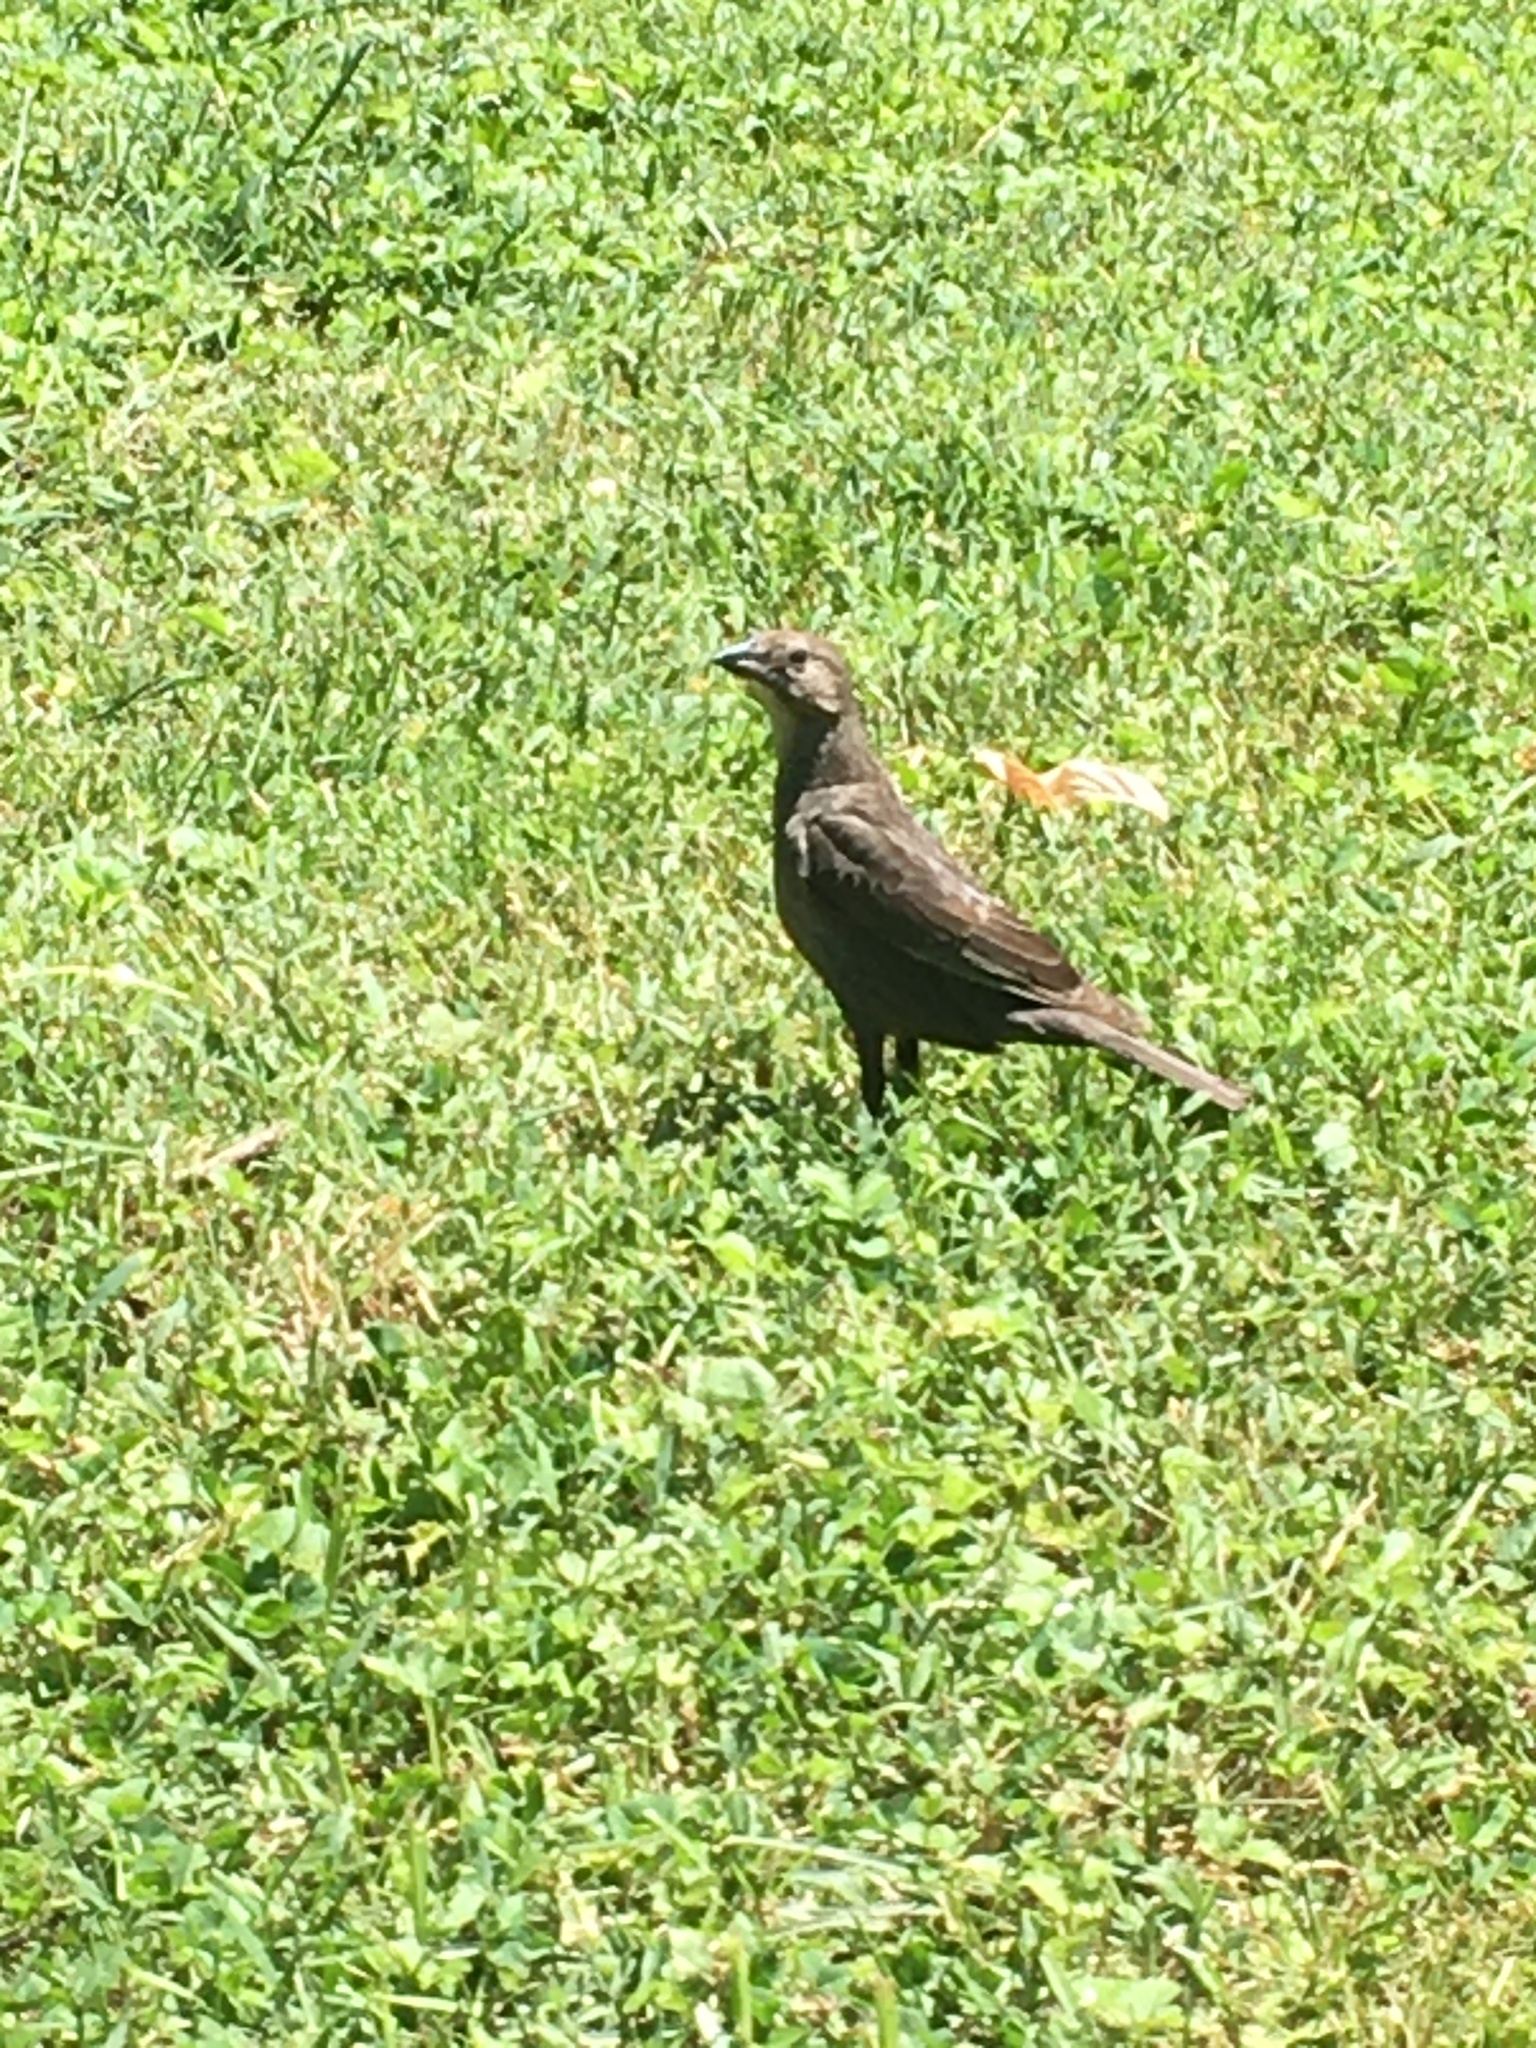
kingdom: Animalia
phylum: Chordata
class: Aves
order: Passeriformes
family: Icteridae
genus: Molothrus
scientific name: Molothrus ater
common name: Brown-headed cowbird
